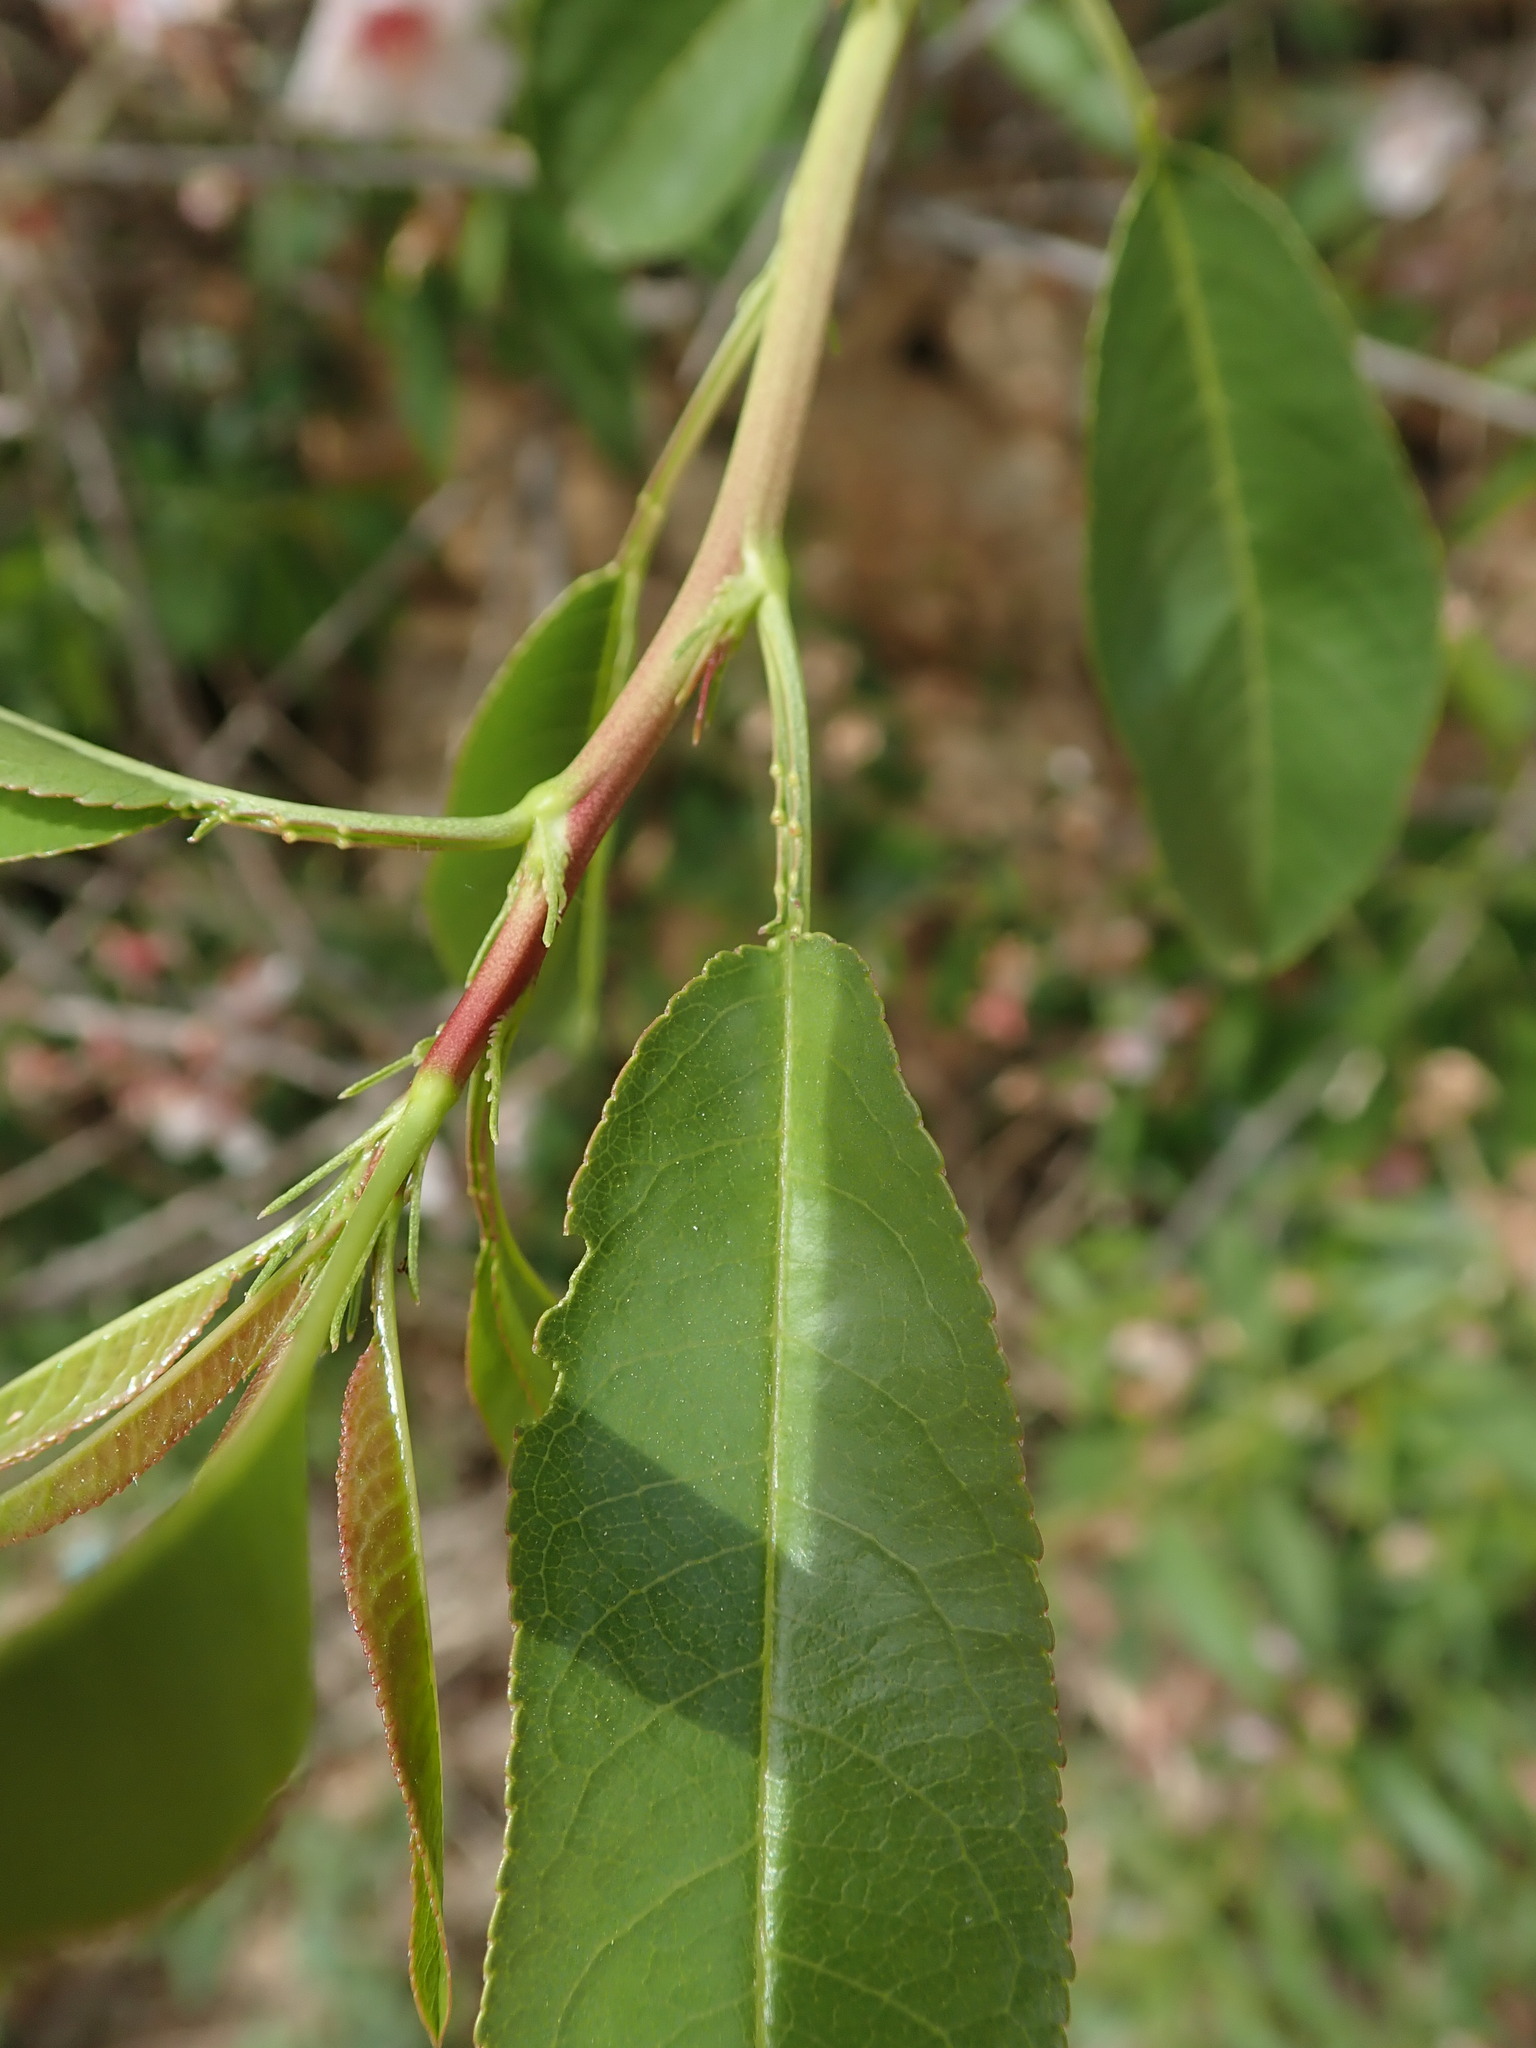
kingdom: Plantae
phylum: Tracheophyta
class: Magnoliopsida
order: Rosales
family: Rosaceae
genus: Prunus
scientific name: Prunus amygdalus
